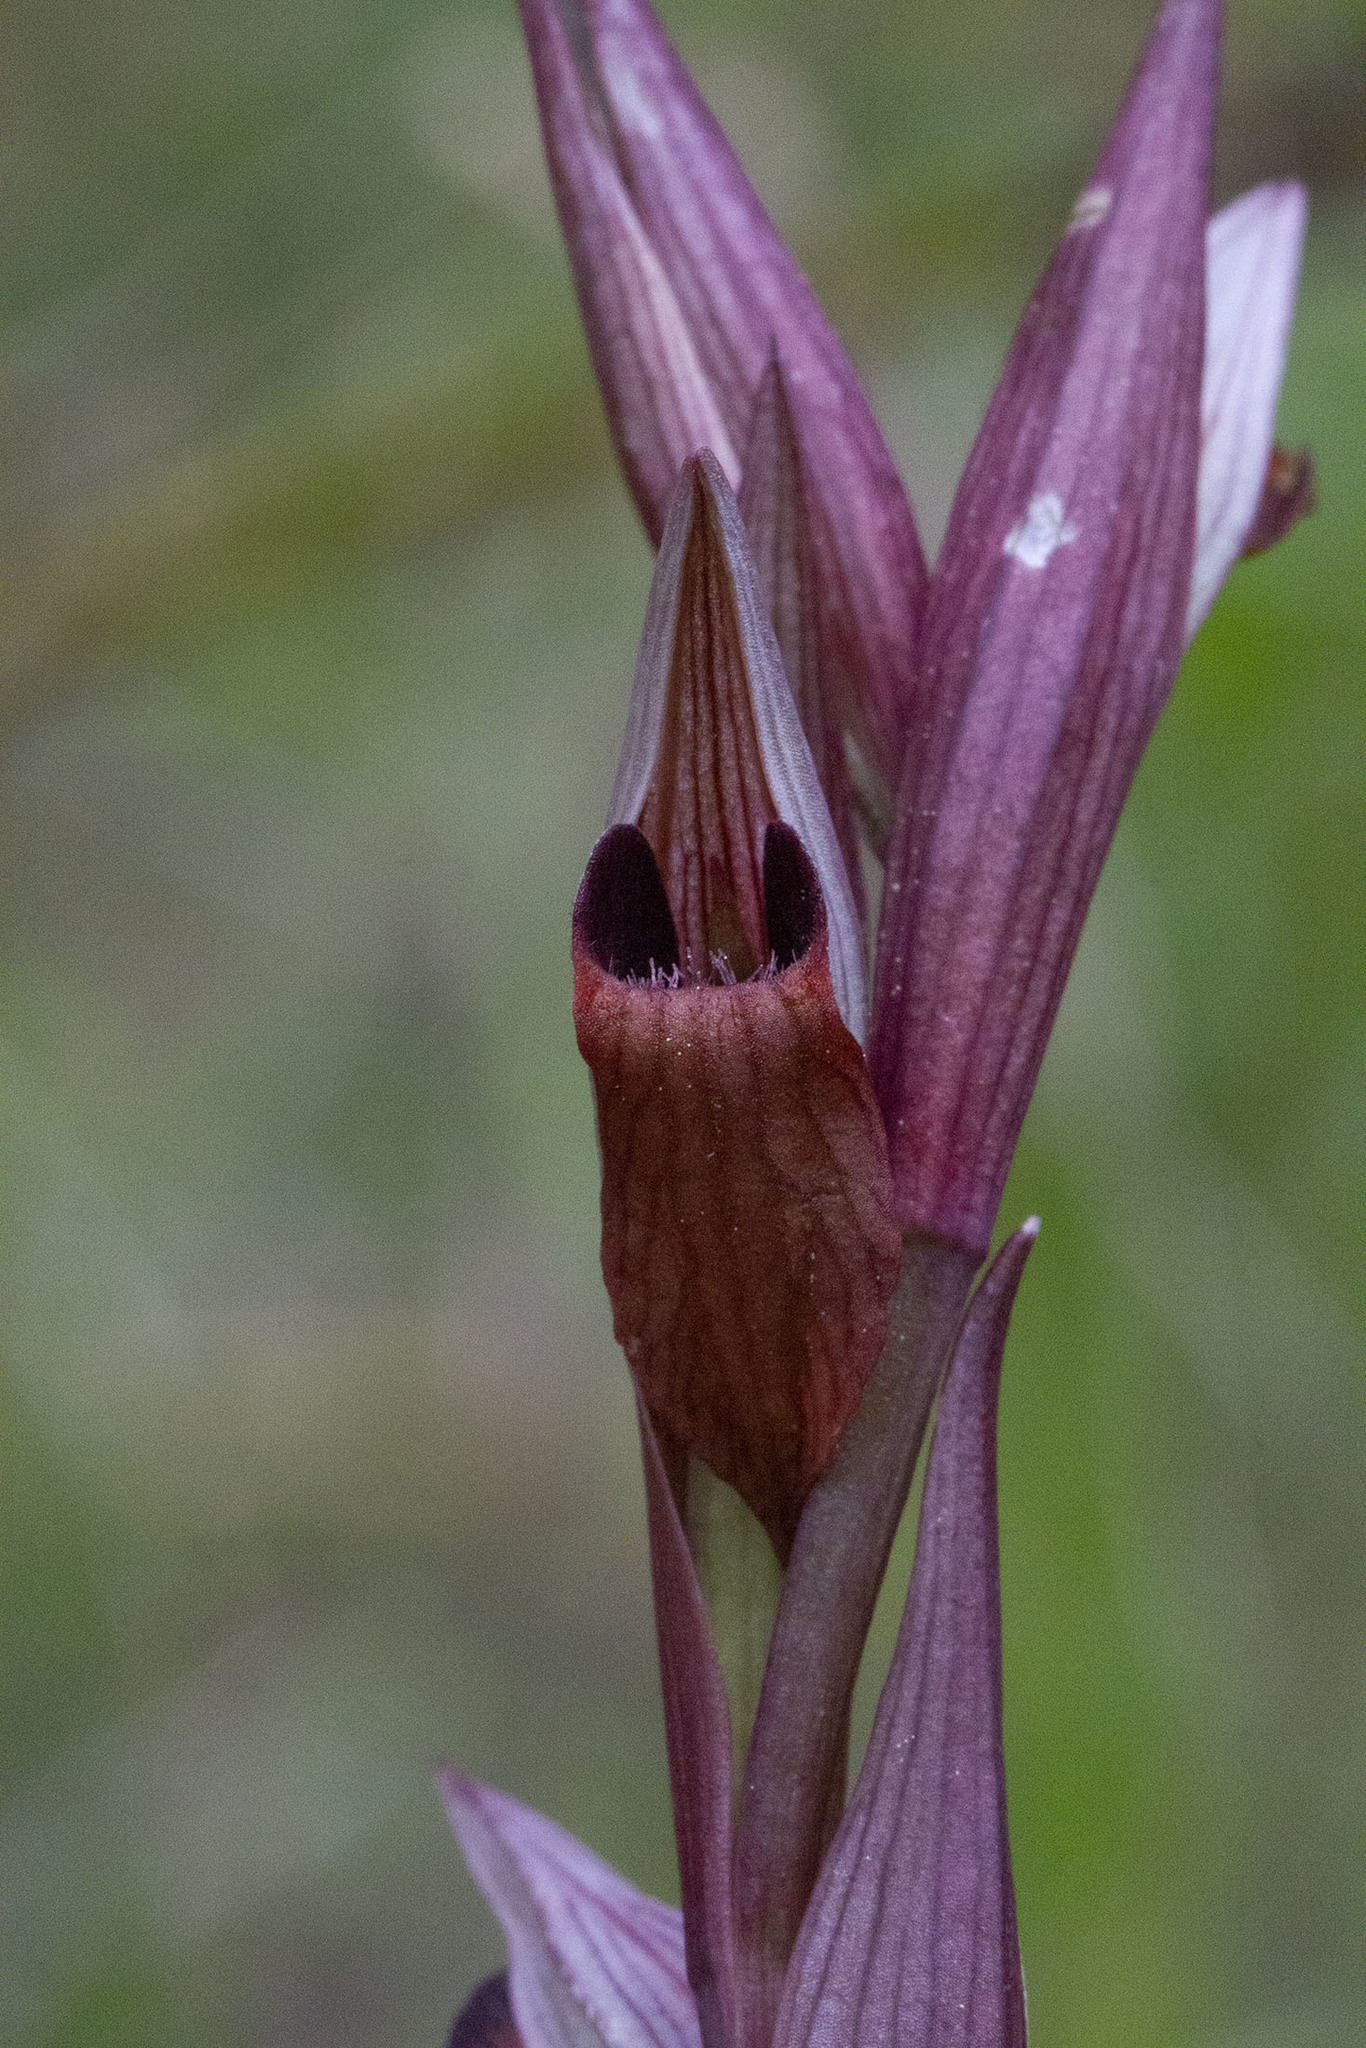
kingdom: Plantae
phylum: Tracheophyta
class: Liliopsida
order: Asparagales
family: Orchidaceae
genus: Serapias
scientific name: Serapias vomeracea
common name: Long-lipped tongue-orchid
